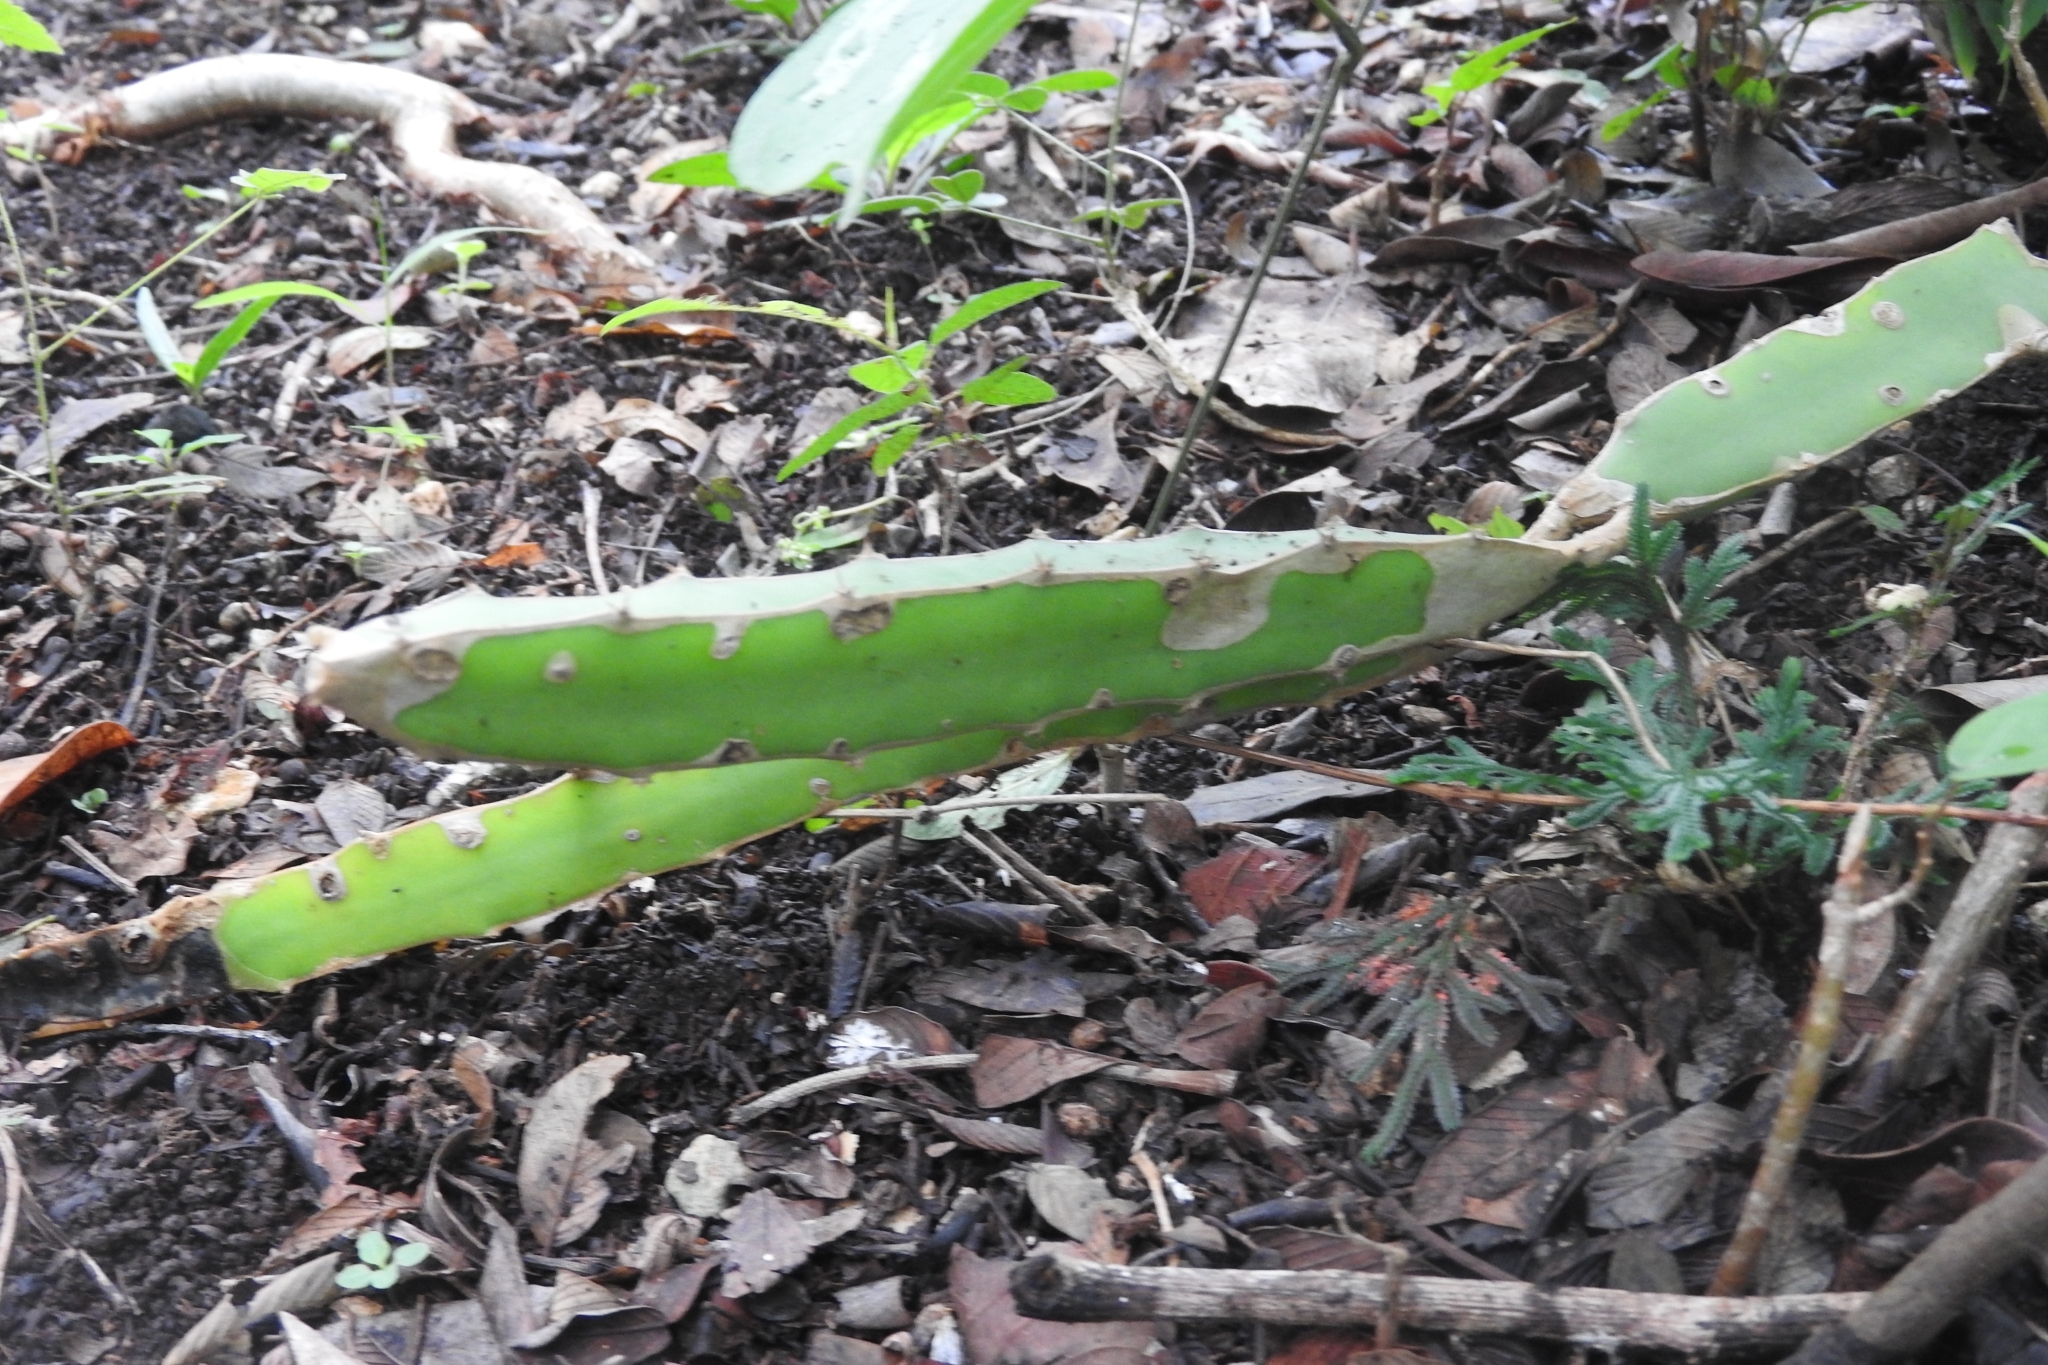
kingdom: Plantae
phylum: Tracheophyta
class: Magnoliopsida
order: Caryophyllales
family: Cactaceae
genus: Acanthocereus
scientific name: Acanthocereus tetragonus
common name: Triangle cactus
